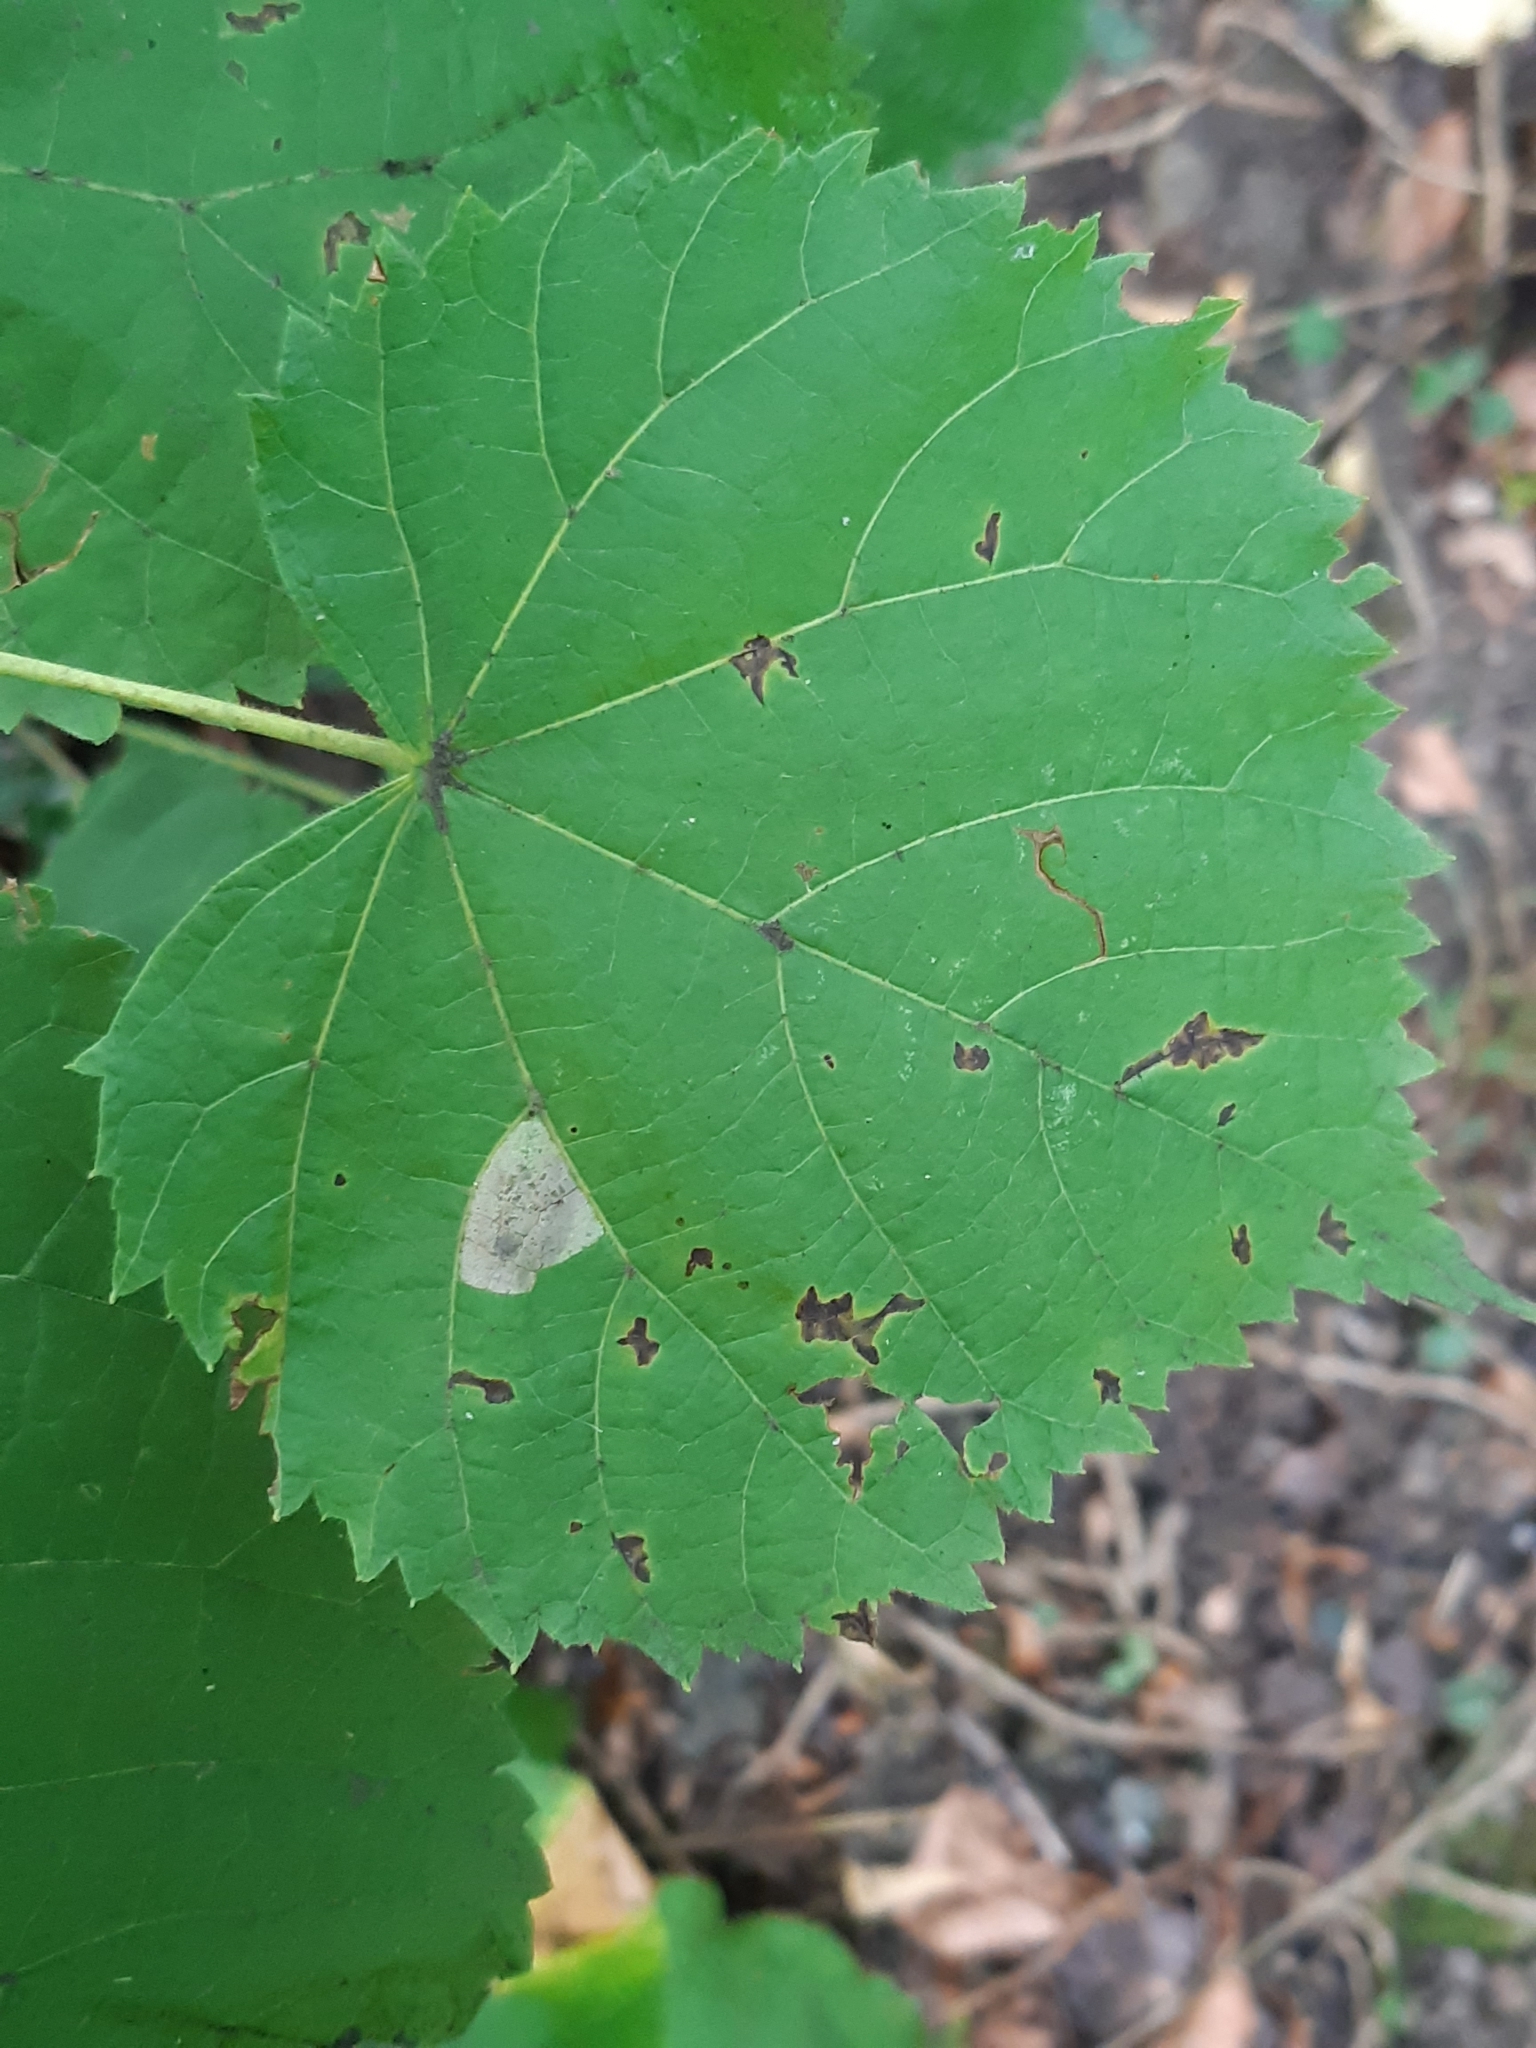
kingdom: Animalia
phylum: Arthropoda
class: Insecta
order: Lepidoptera
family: Gracillariidae
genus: Phyllonorycter
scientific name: Phyllonorycter issikii
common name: Linden midget
